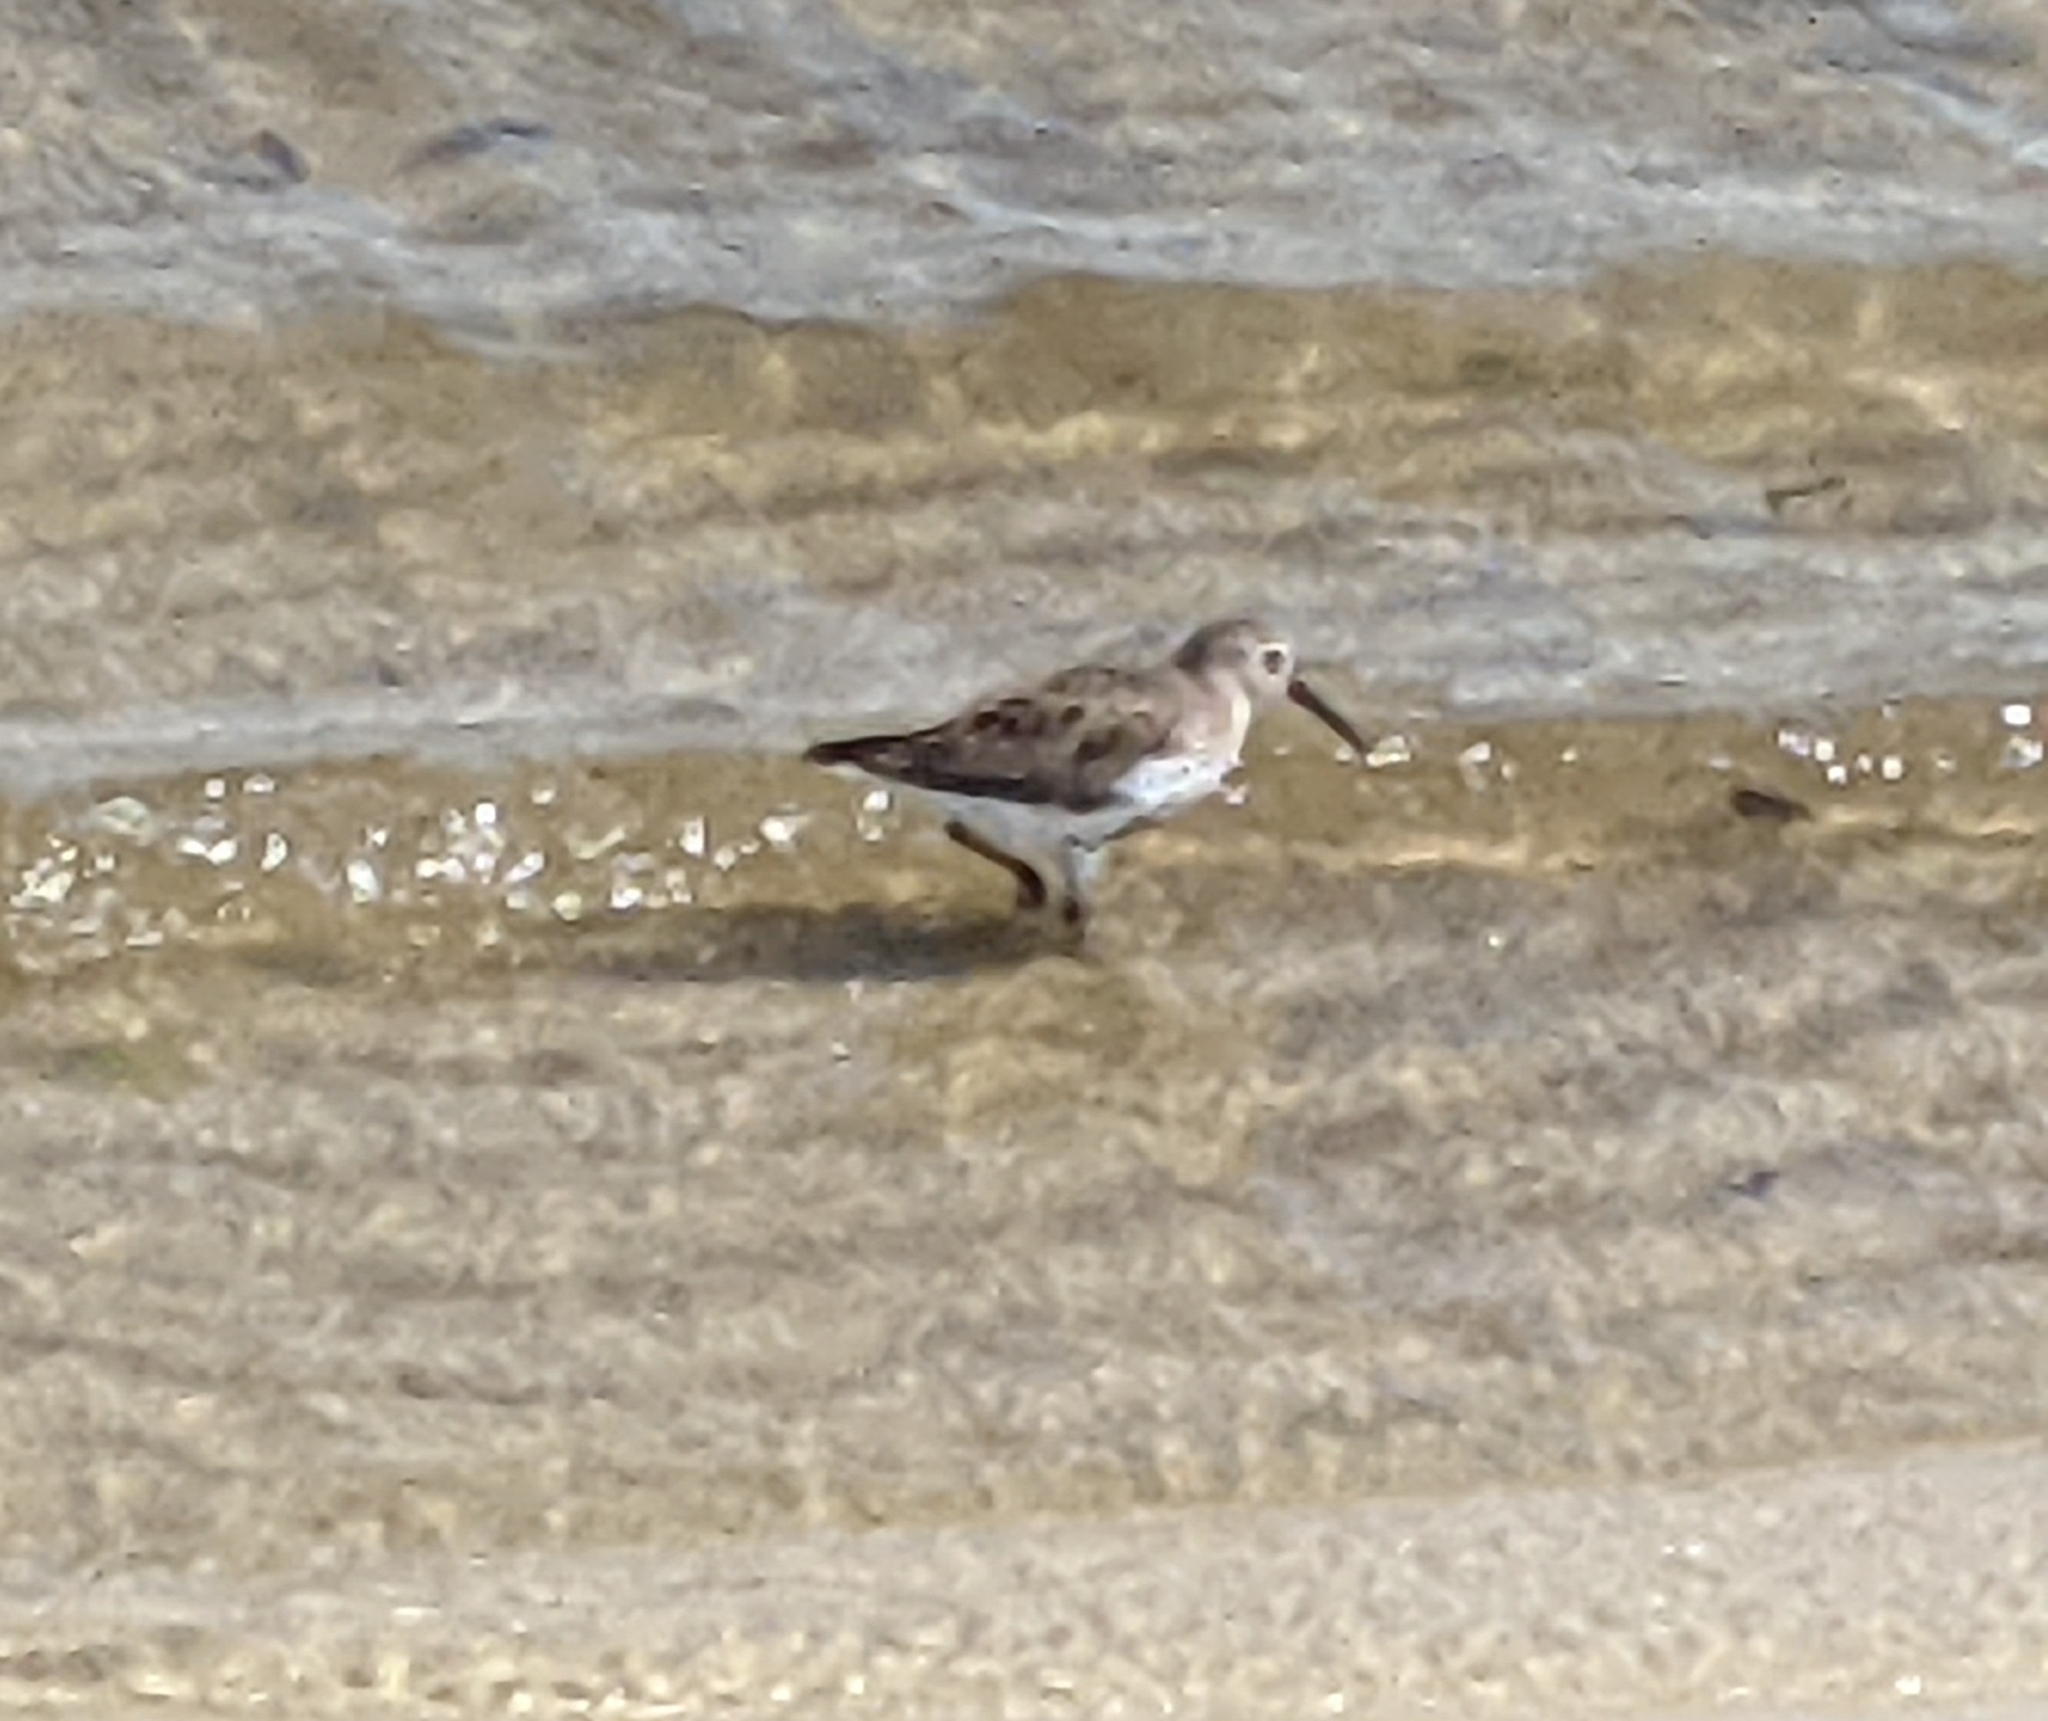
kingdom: Animalia
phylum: Chordata
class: Aves
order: Charadriiformes
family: Scolopacidae
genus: Calidris
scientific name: Calidris alpina
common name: Dunlin
